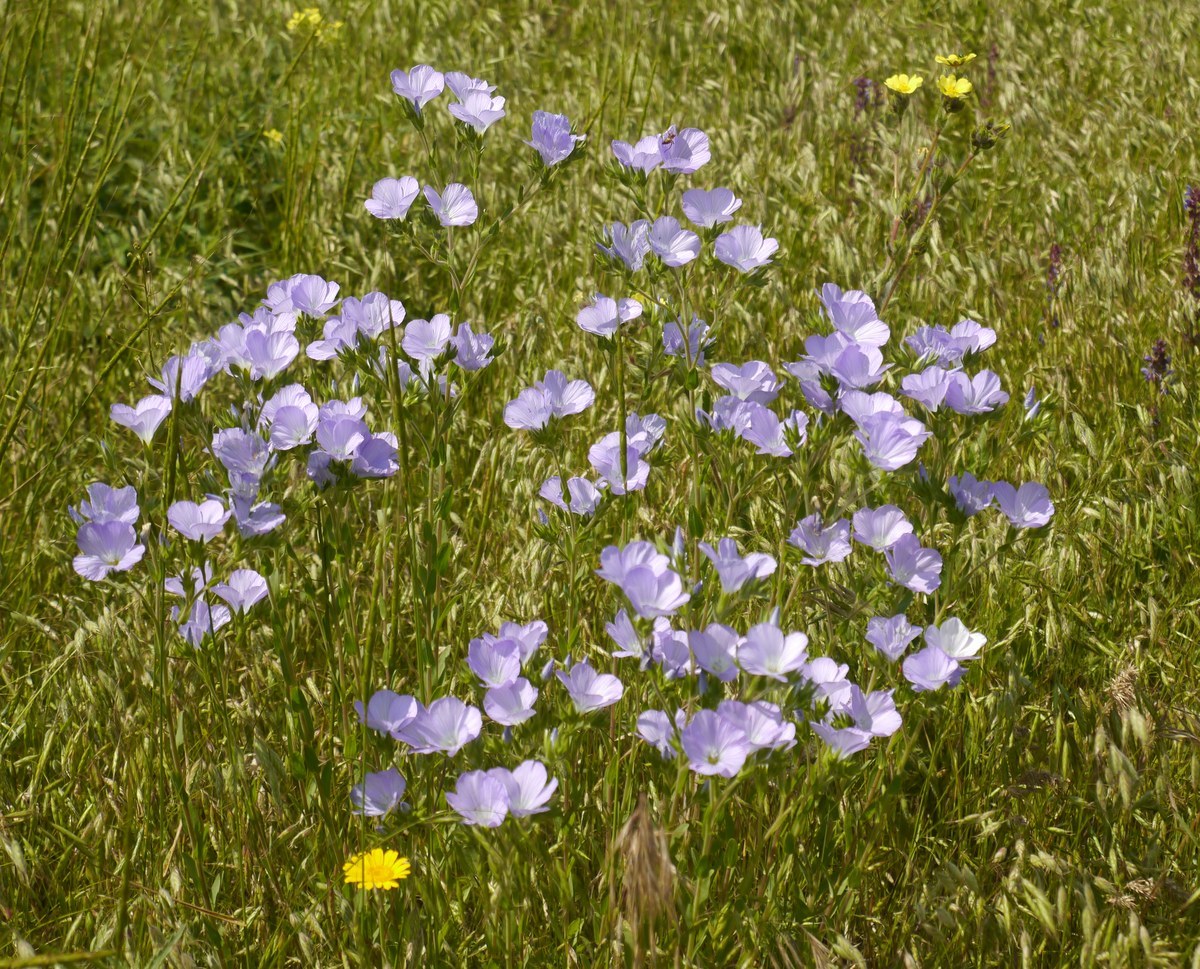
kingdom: Plantae
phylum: Tracheophyta
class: Magnoliopsida
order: Malpighiales
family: Linaceae
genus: Linum
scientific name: Linum hirsutum
